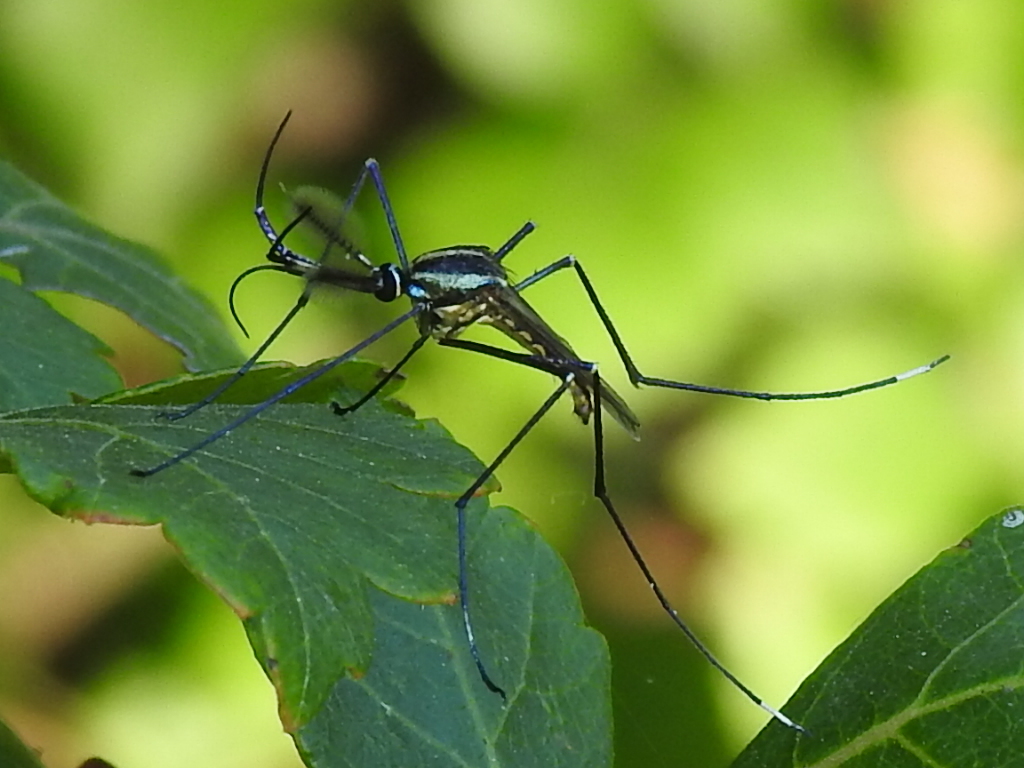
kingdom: Animalia
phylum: Arthropoda
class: Insecta
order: Diptera
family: Culicidae
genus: Toxorhynchites
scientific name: Toxorhynchites rutilus
